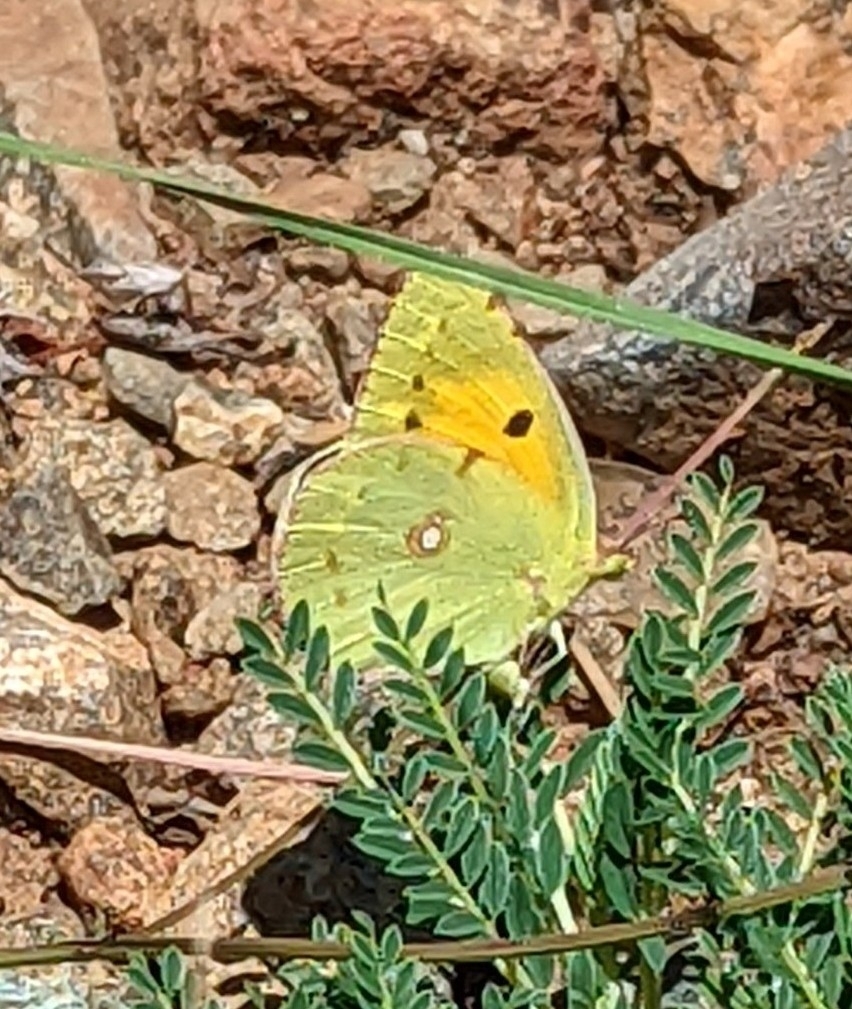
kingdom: Animalia
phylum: Arthropoda
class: Insecta
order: Lepidoptera
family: Pieridae
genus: Colias
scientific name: Colias croceus
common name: Clouded yellow
